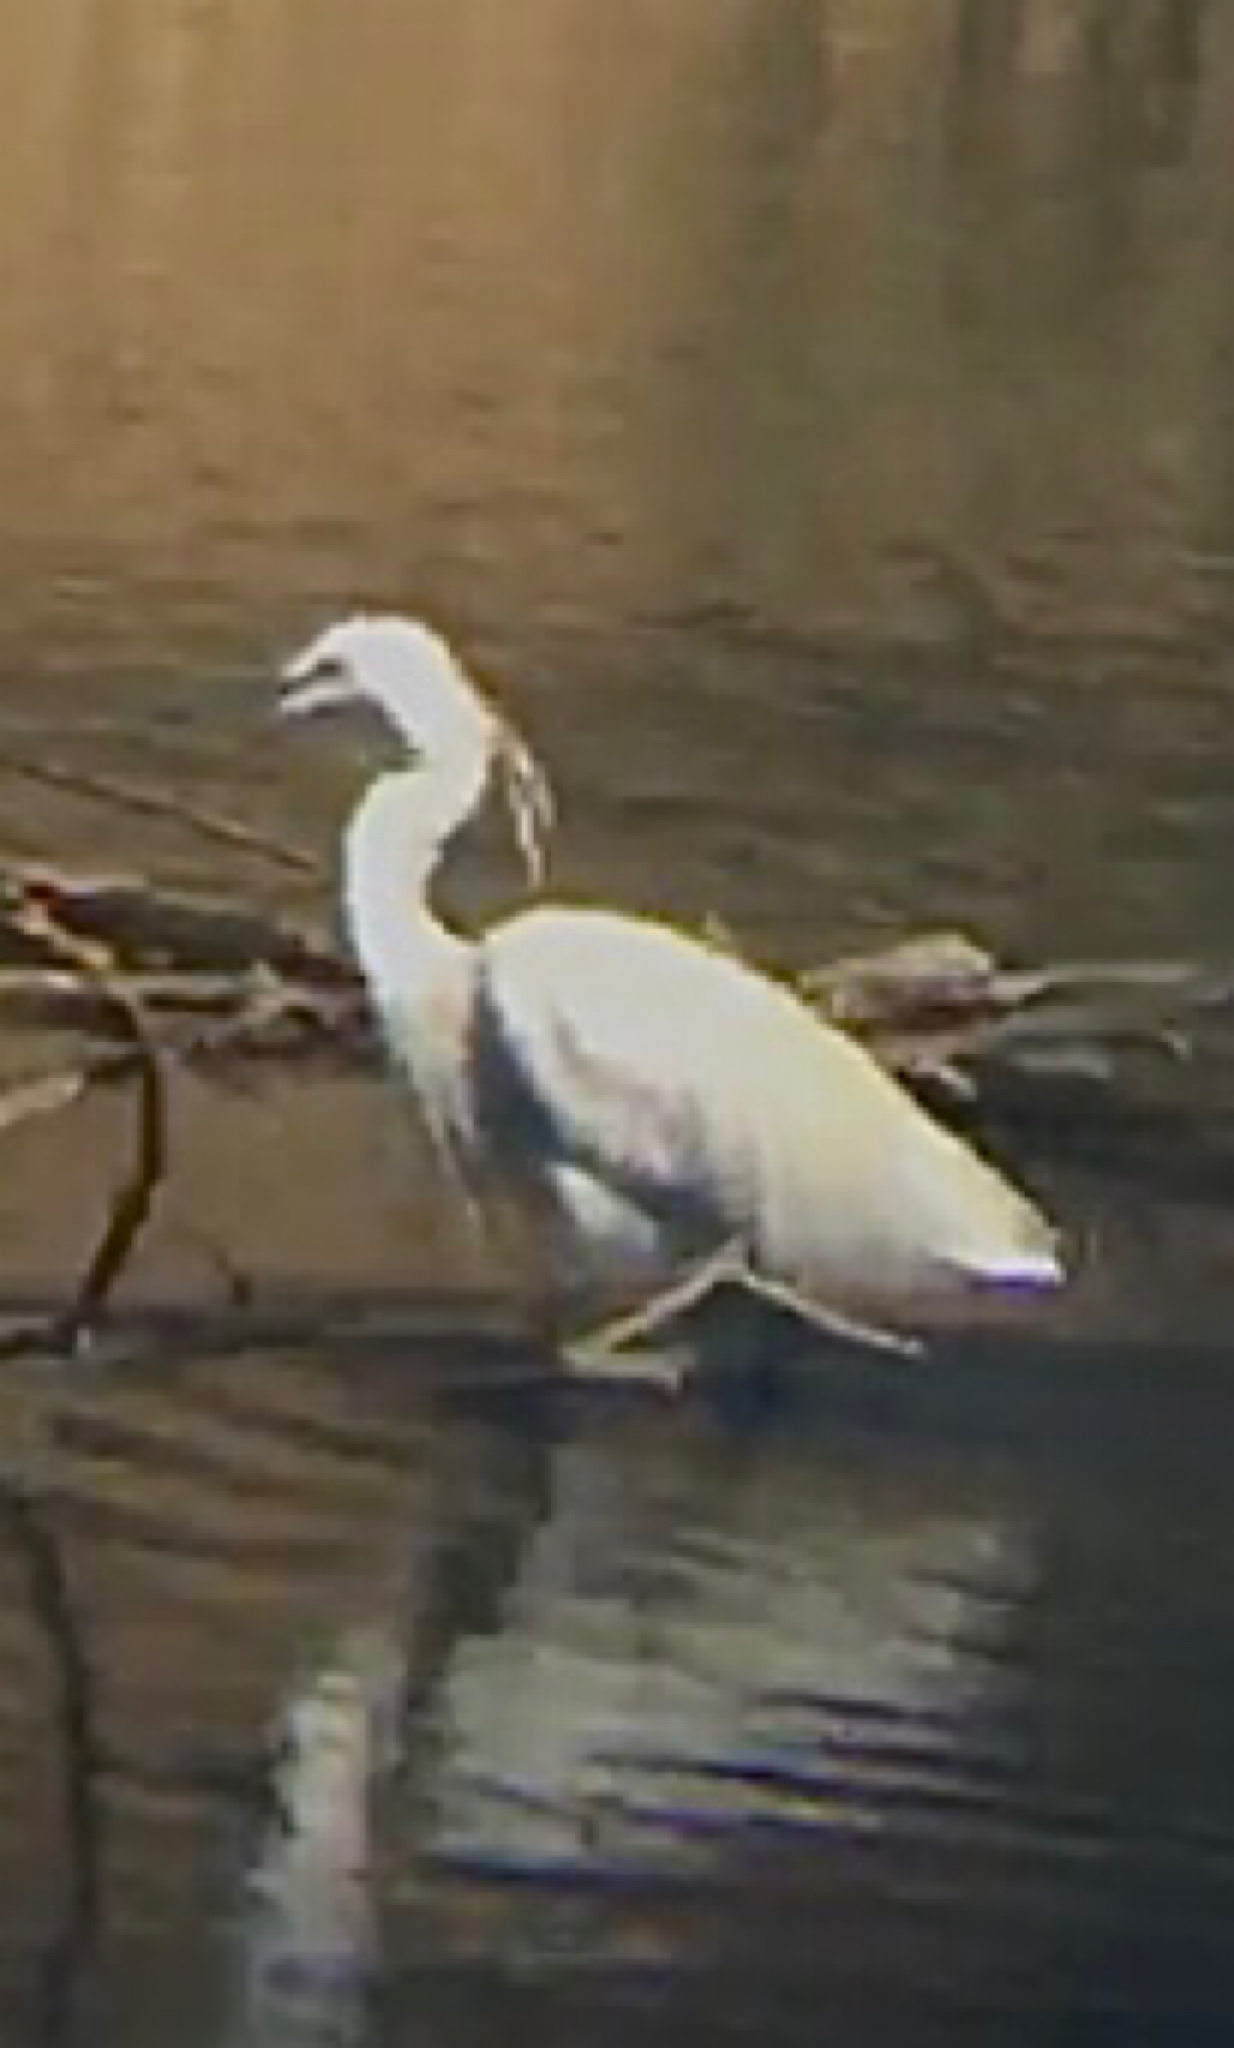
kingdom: Animalia
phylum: Chordata
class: Aves
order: Pelecaniformes
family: Ardeidae
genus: Egretta
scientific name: Egretta garzetta
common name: Little egret
